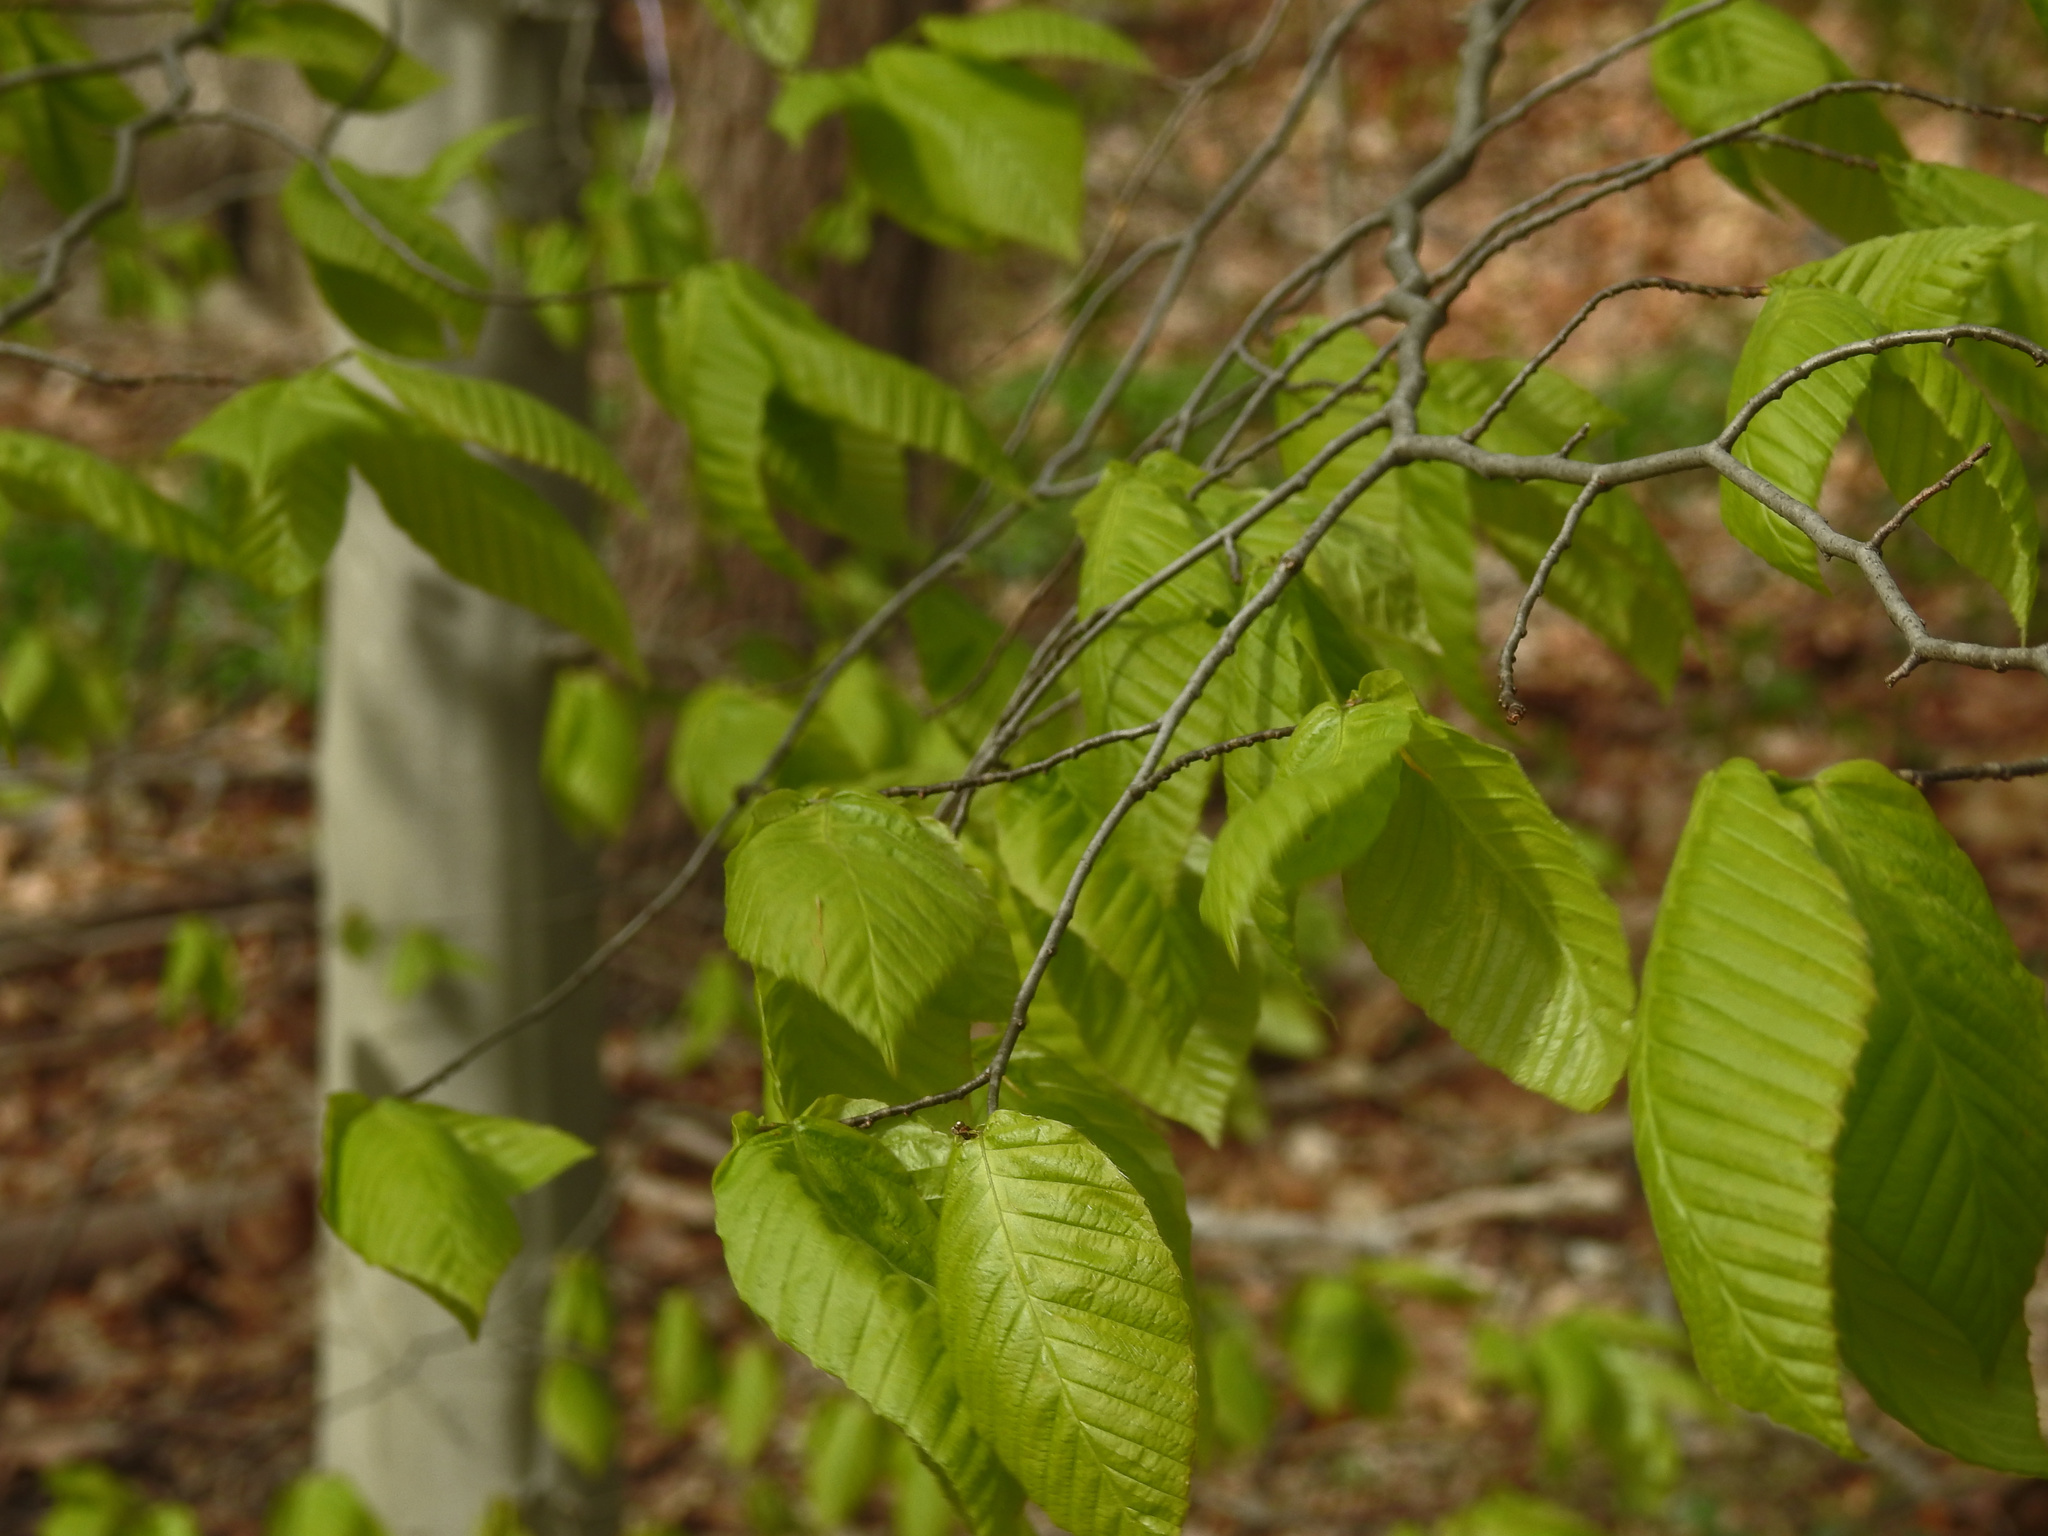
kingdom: Plantae
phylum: Tracheophyta
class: Magnoliopsida
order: Fagales
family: Fagaceae
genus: Fagus
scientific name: Fagus grandifolia
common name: American beech
